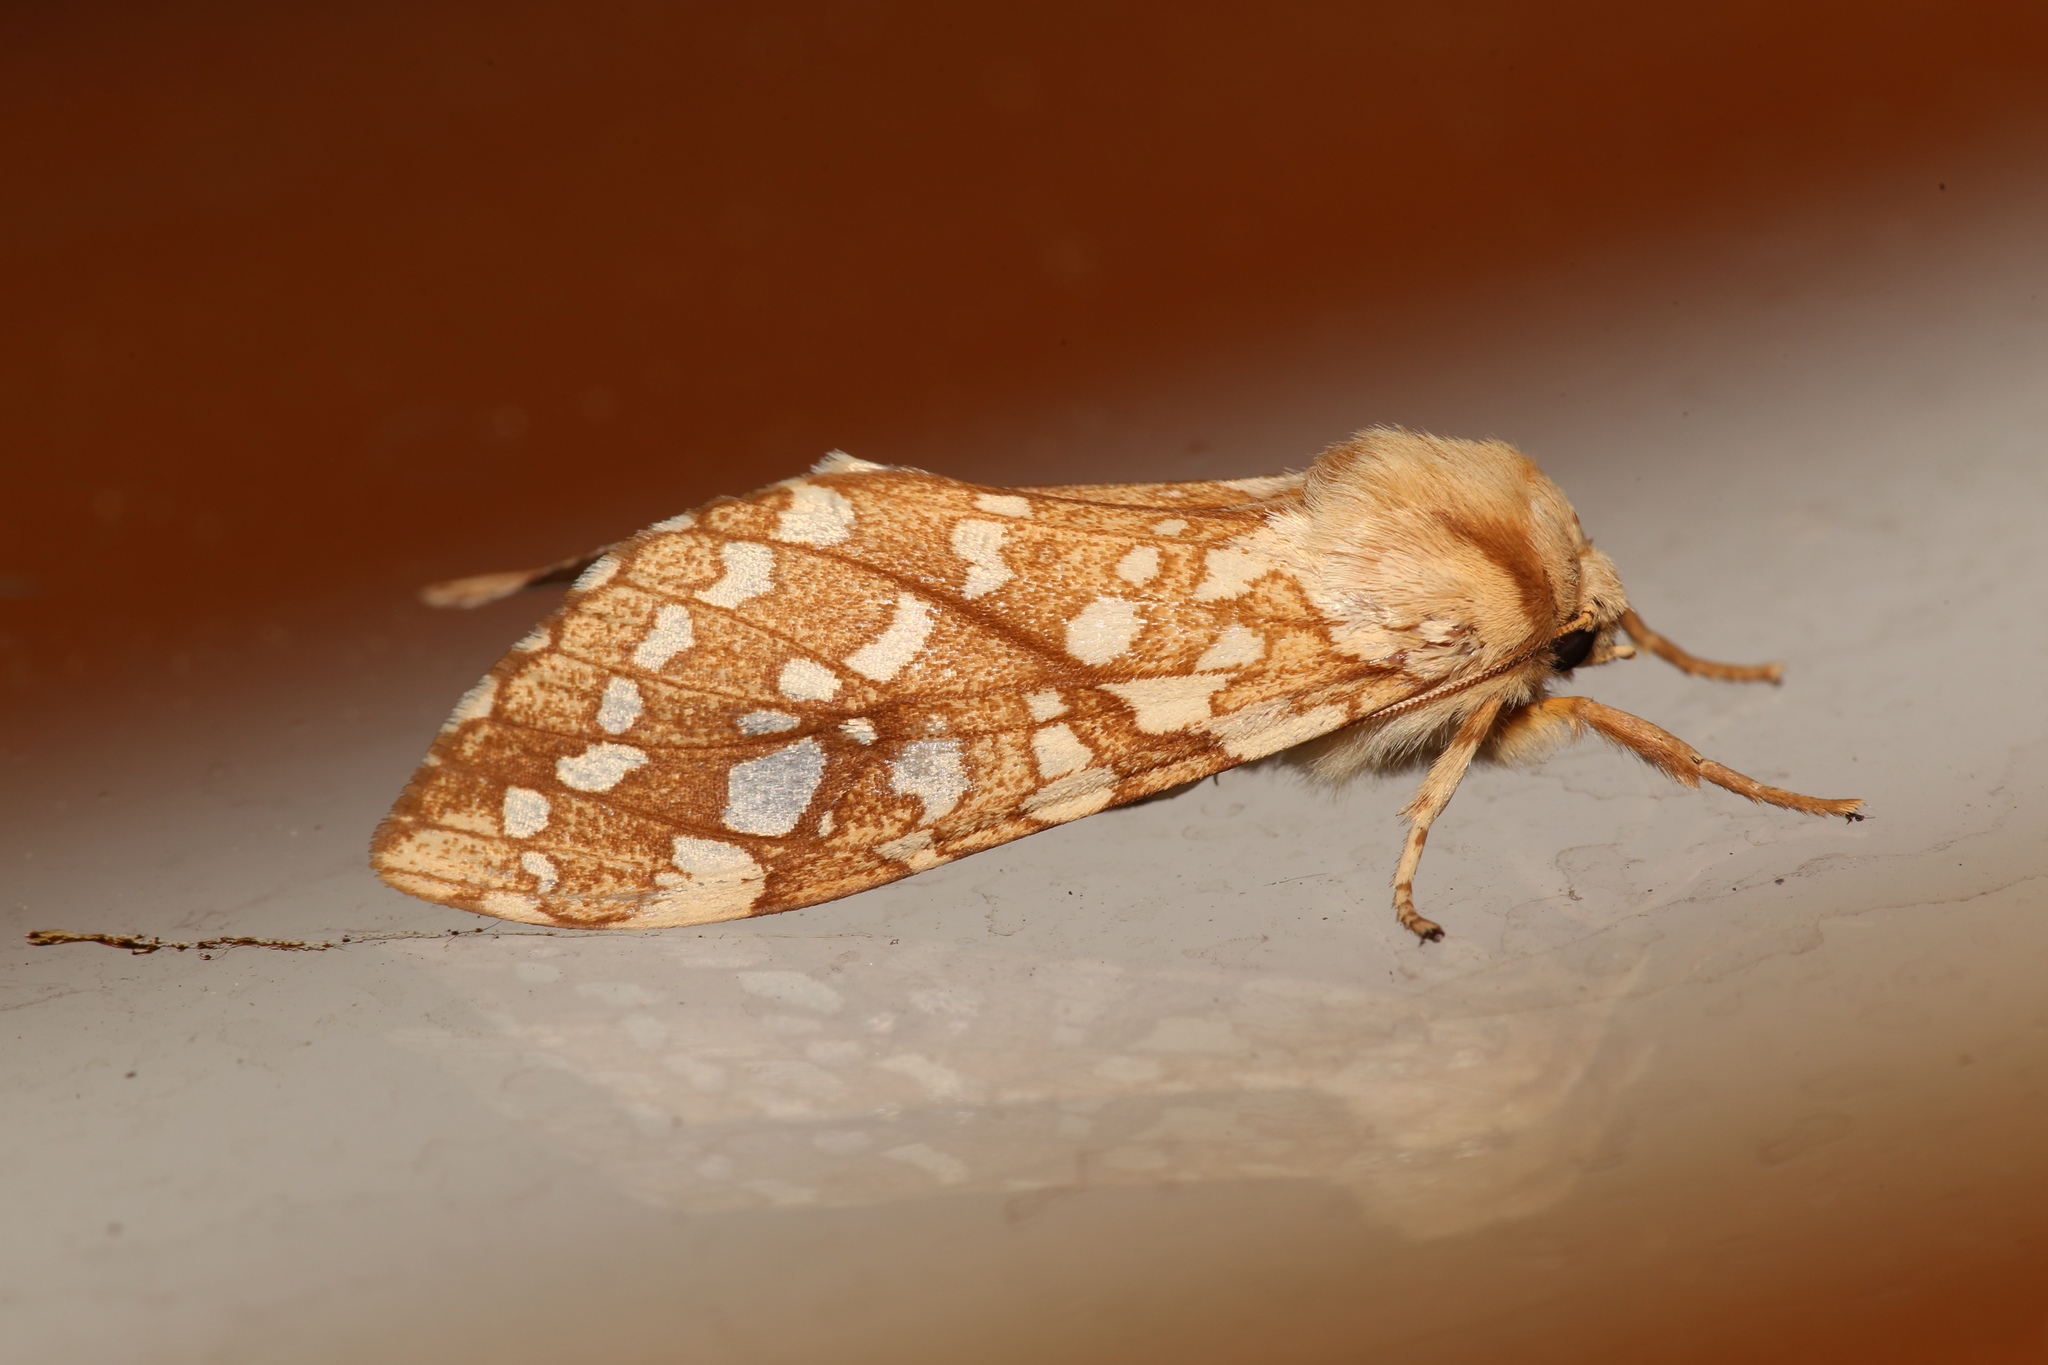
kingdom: Animalia
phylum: Arthropoda
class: Insecta
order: Lepidoptera
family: Erebidae
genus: Lophocampa
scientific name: Lophocampa caryae
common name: Hickory tussock moth
